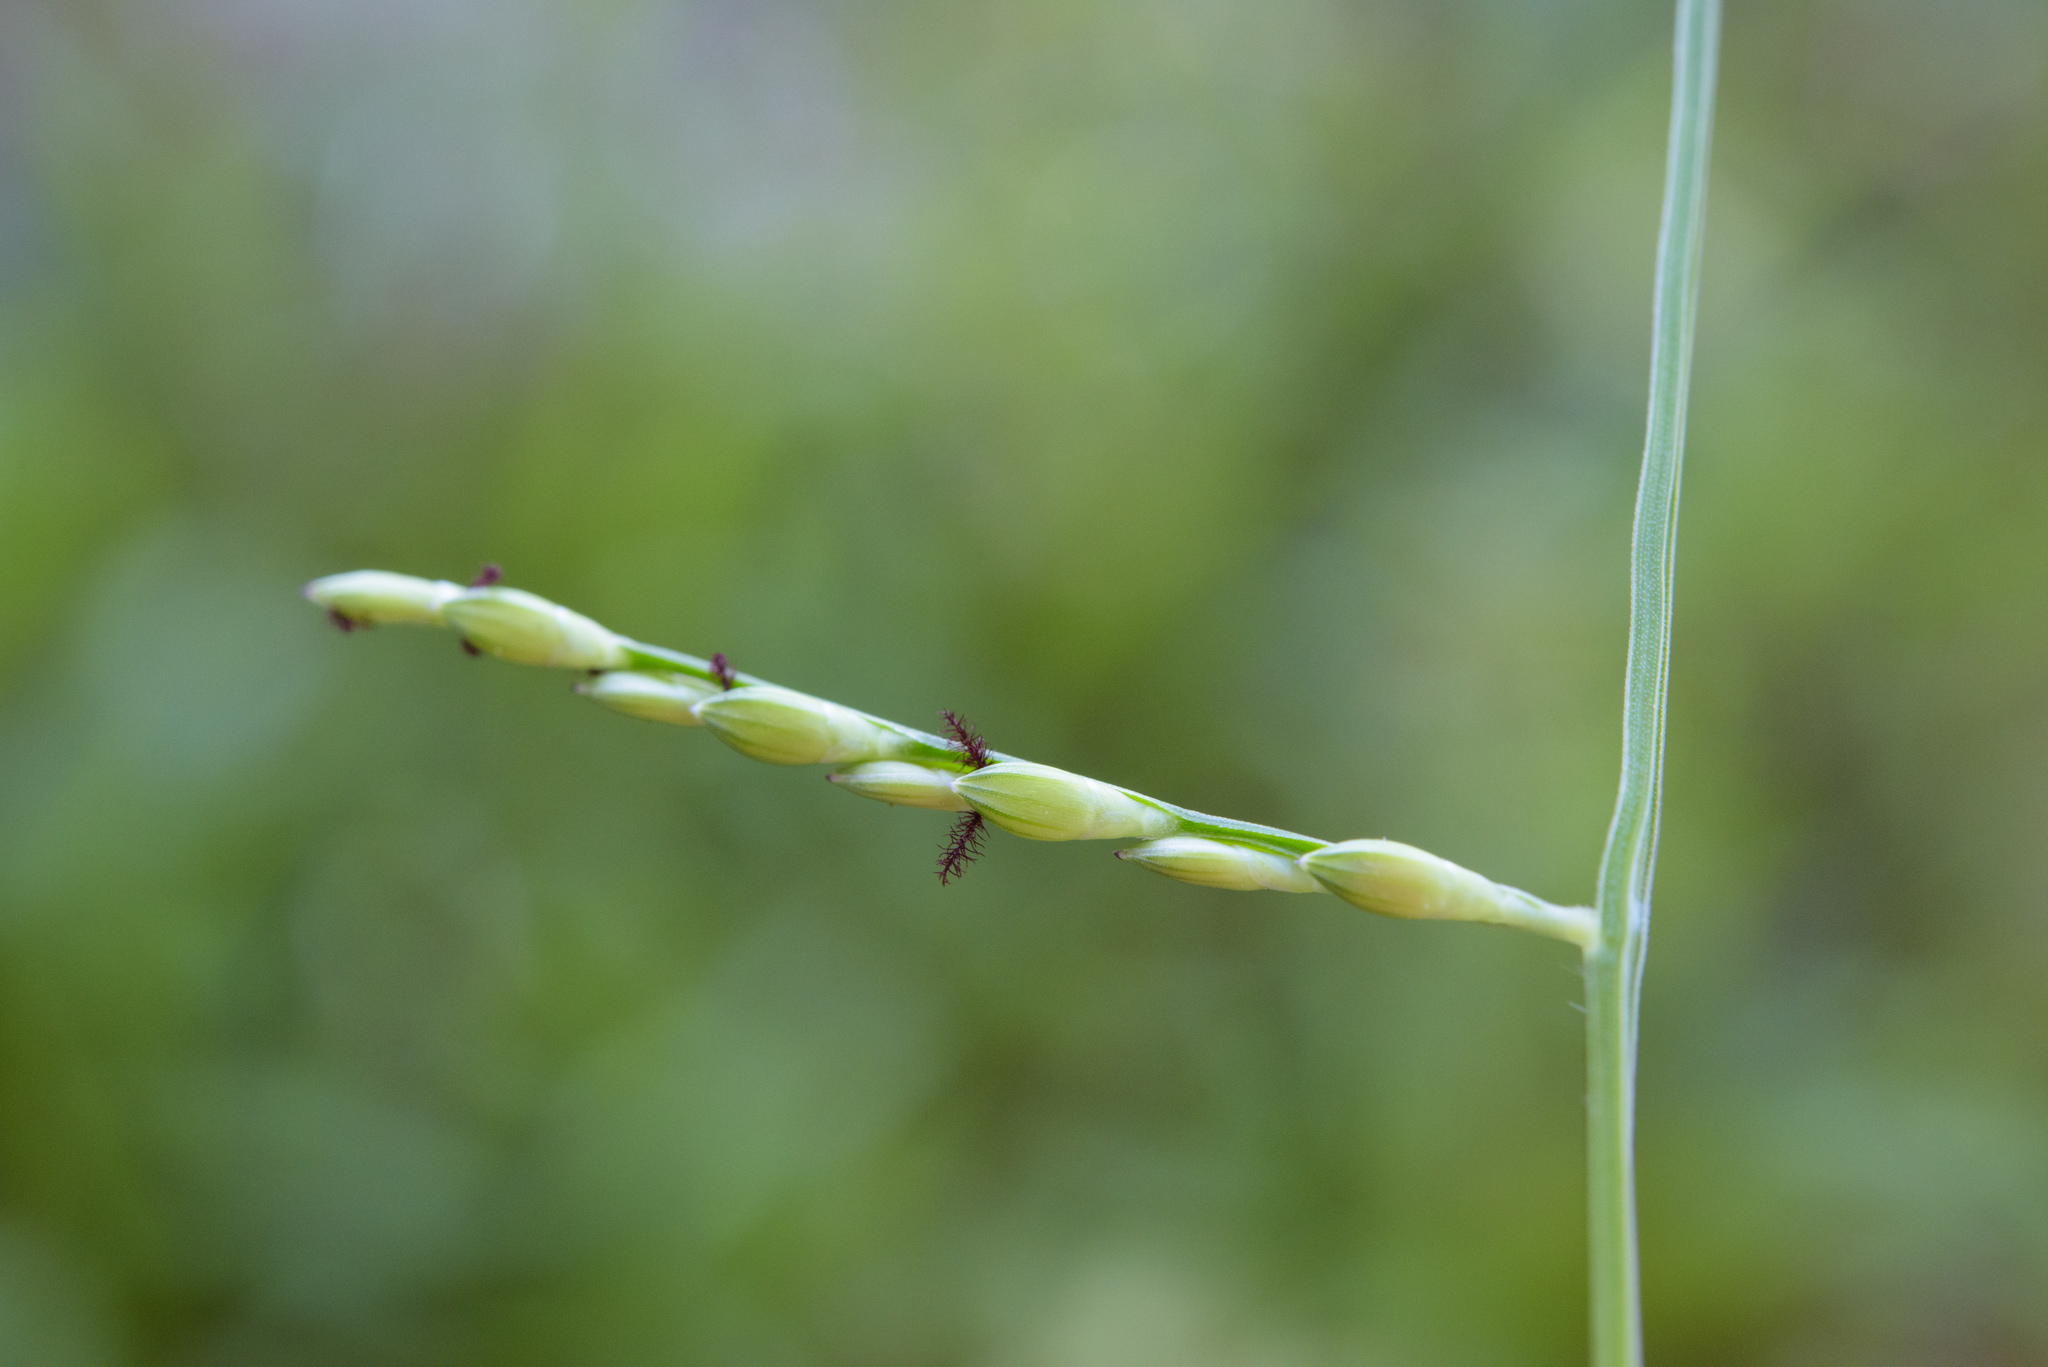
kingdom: Plantae
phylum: Tracheophyta
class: Liliopsida
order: Poales
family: Poaceae
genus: Urochloa
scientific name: Urochloa distachyos
